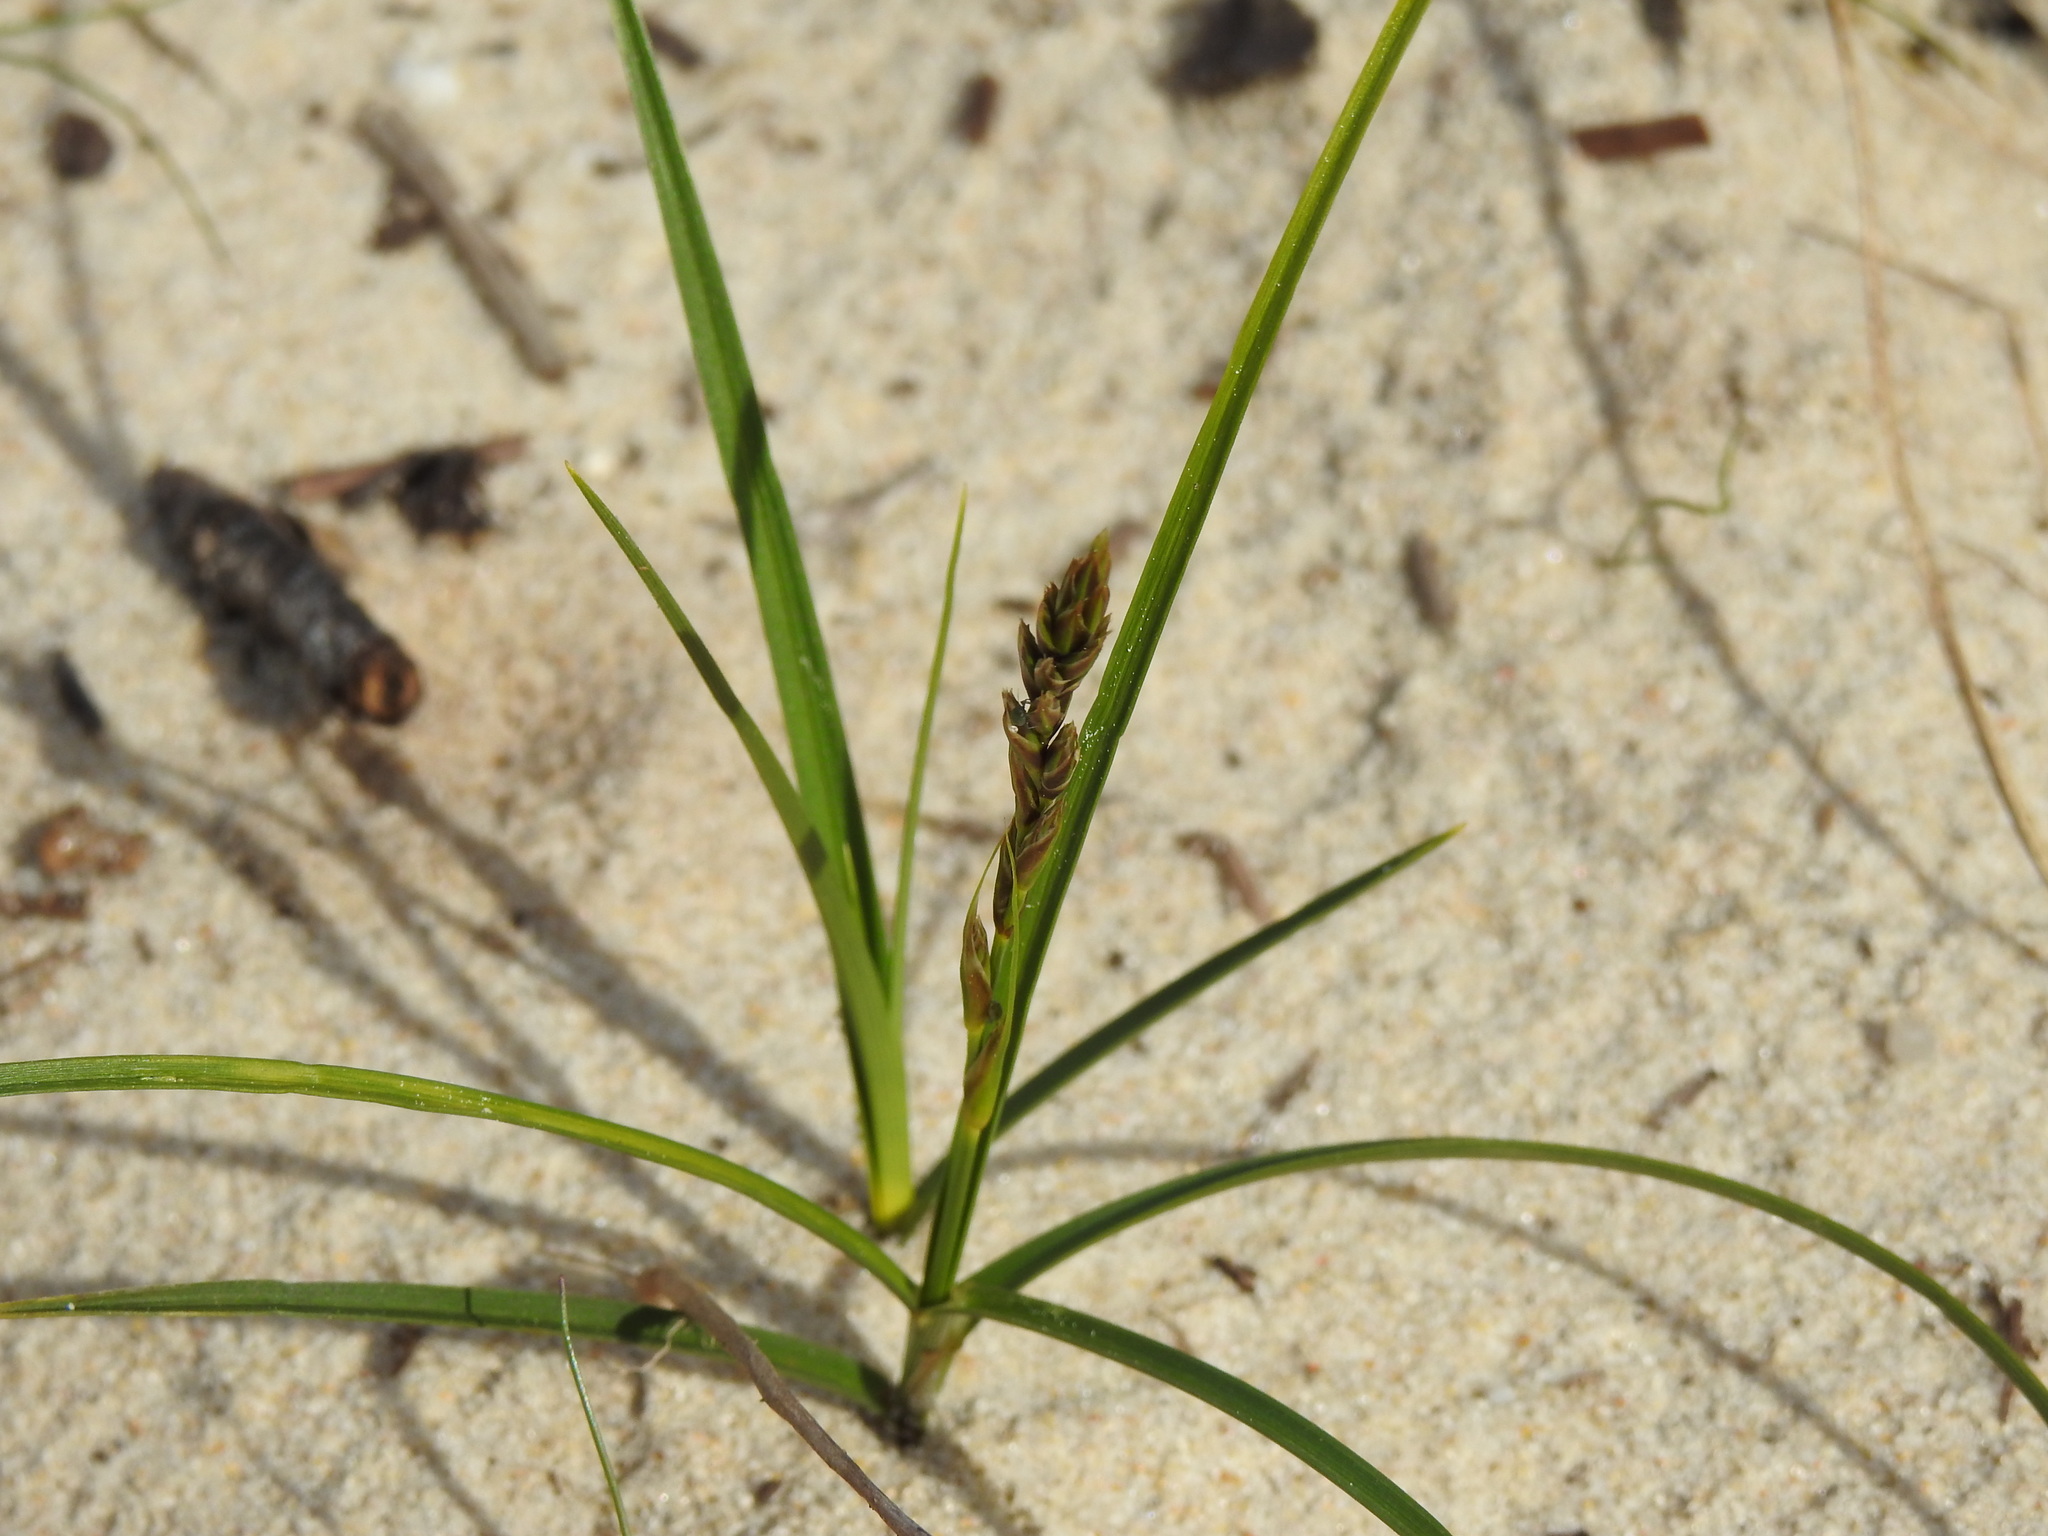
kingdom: Plantae
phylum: Tracheophyta
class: Liliopsida
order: Poales
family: Cyperaceae
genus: Carex
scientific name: Carex arenaria
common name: Sand sedge
